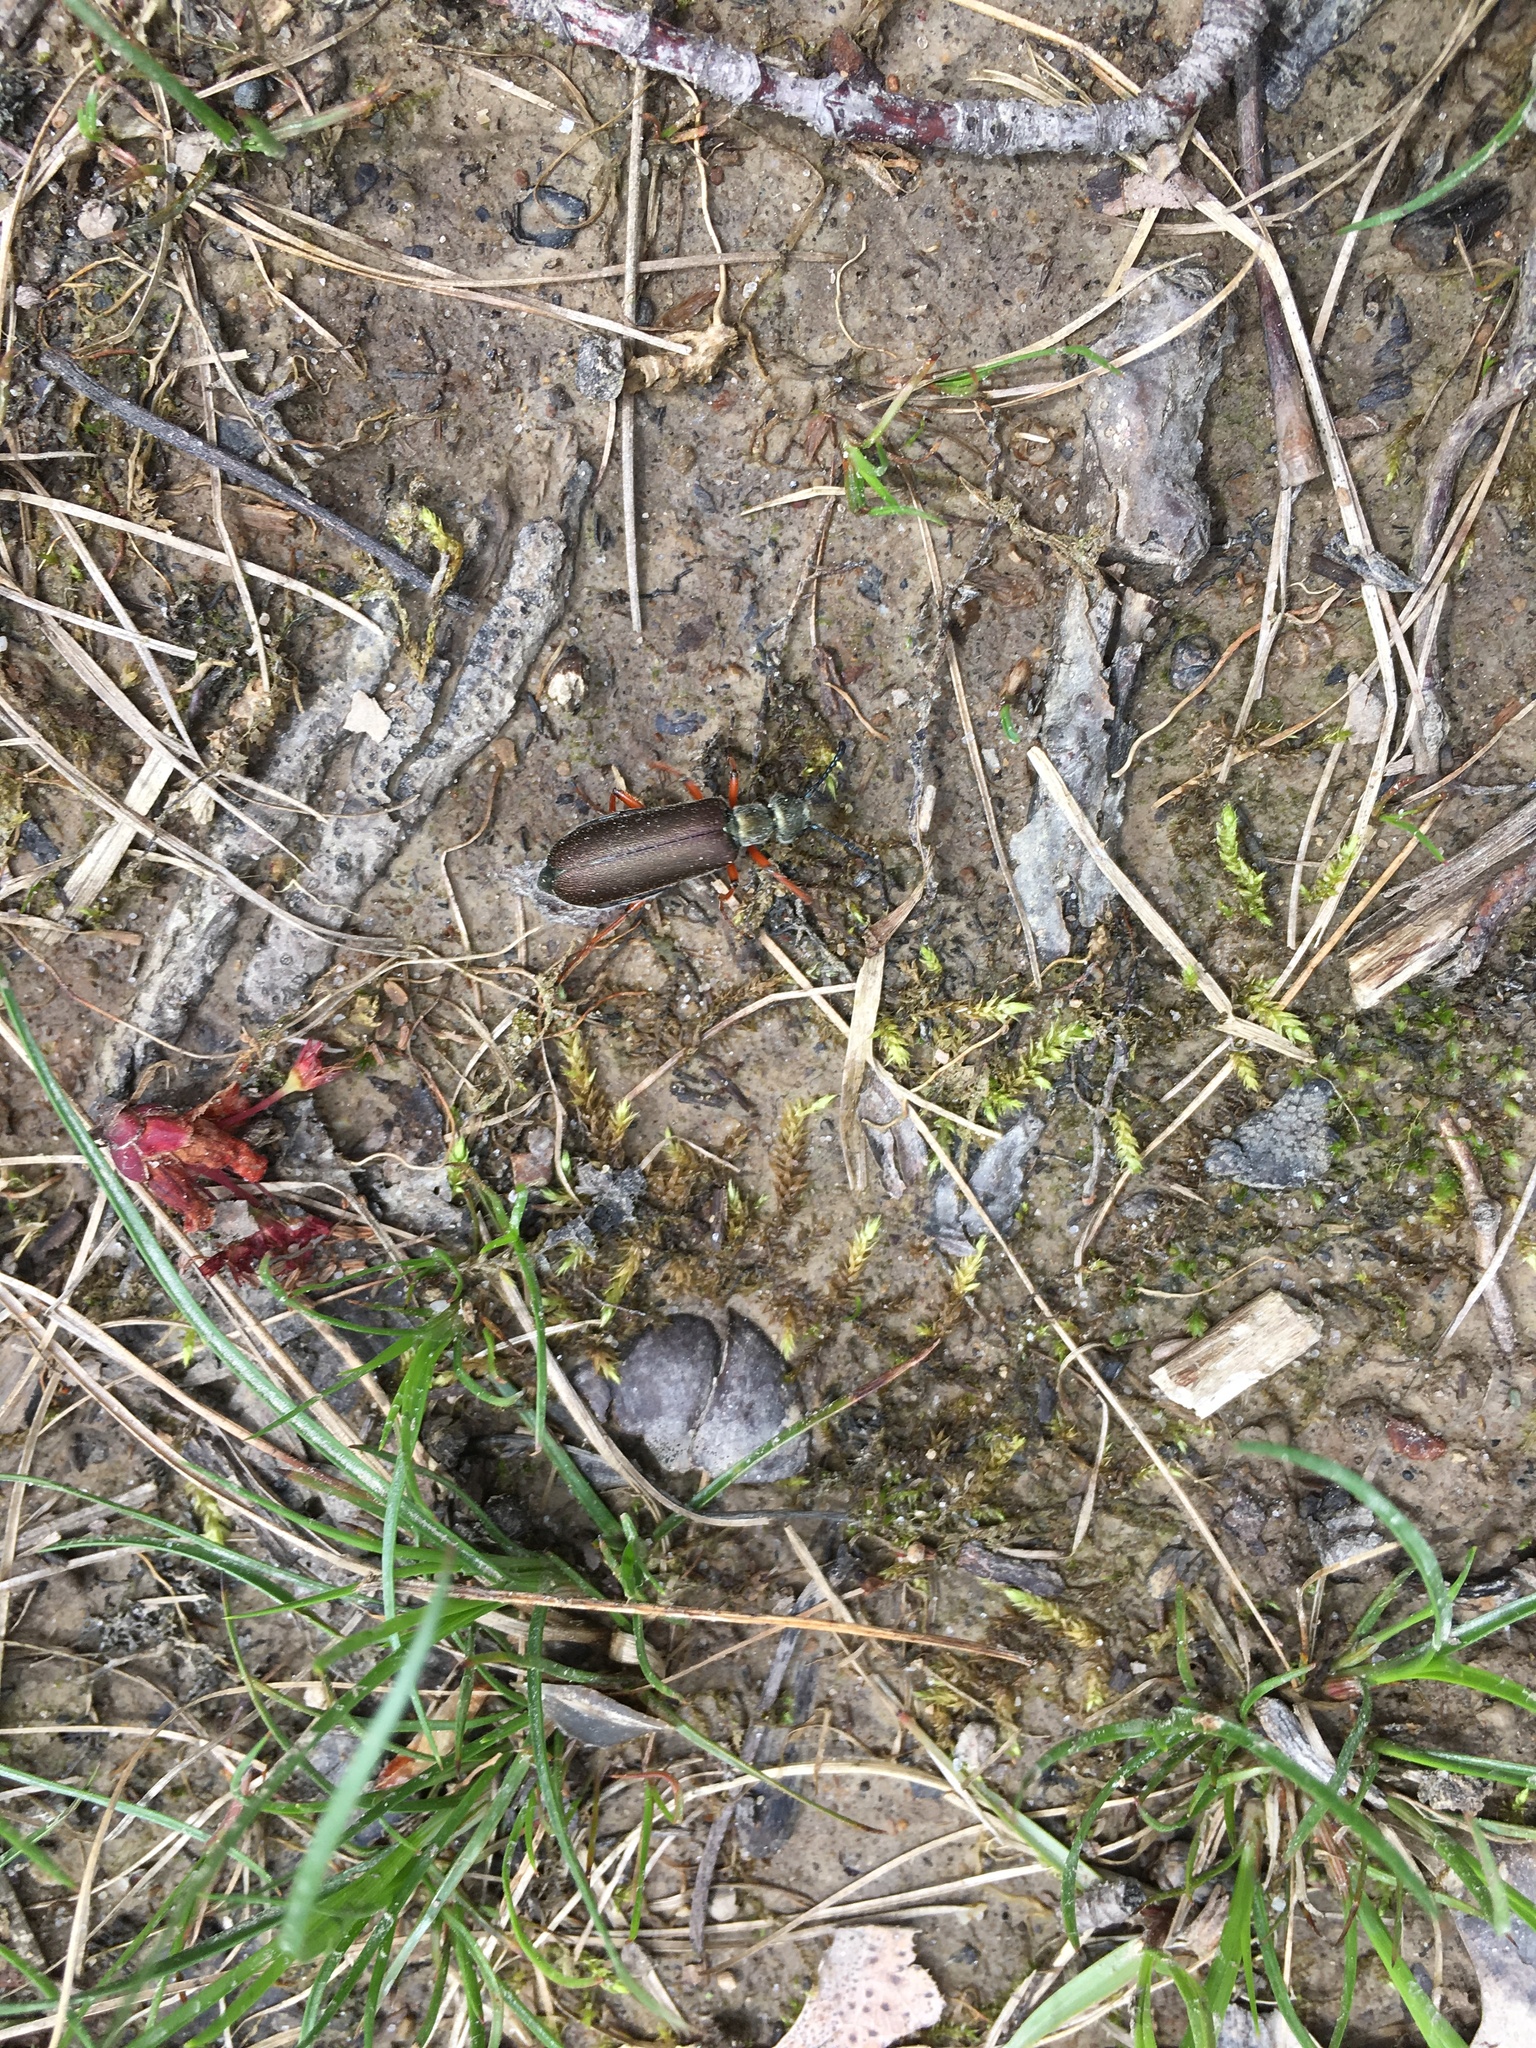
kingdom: Animalia
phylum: Arthropoda
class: Insecta
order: Coleoptera
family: Meloidae
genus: Lytta
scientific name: Lytta aenea
